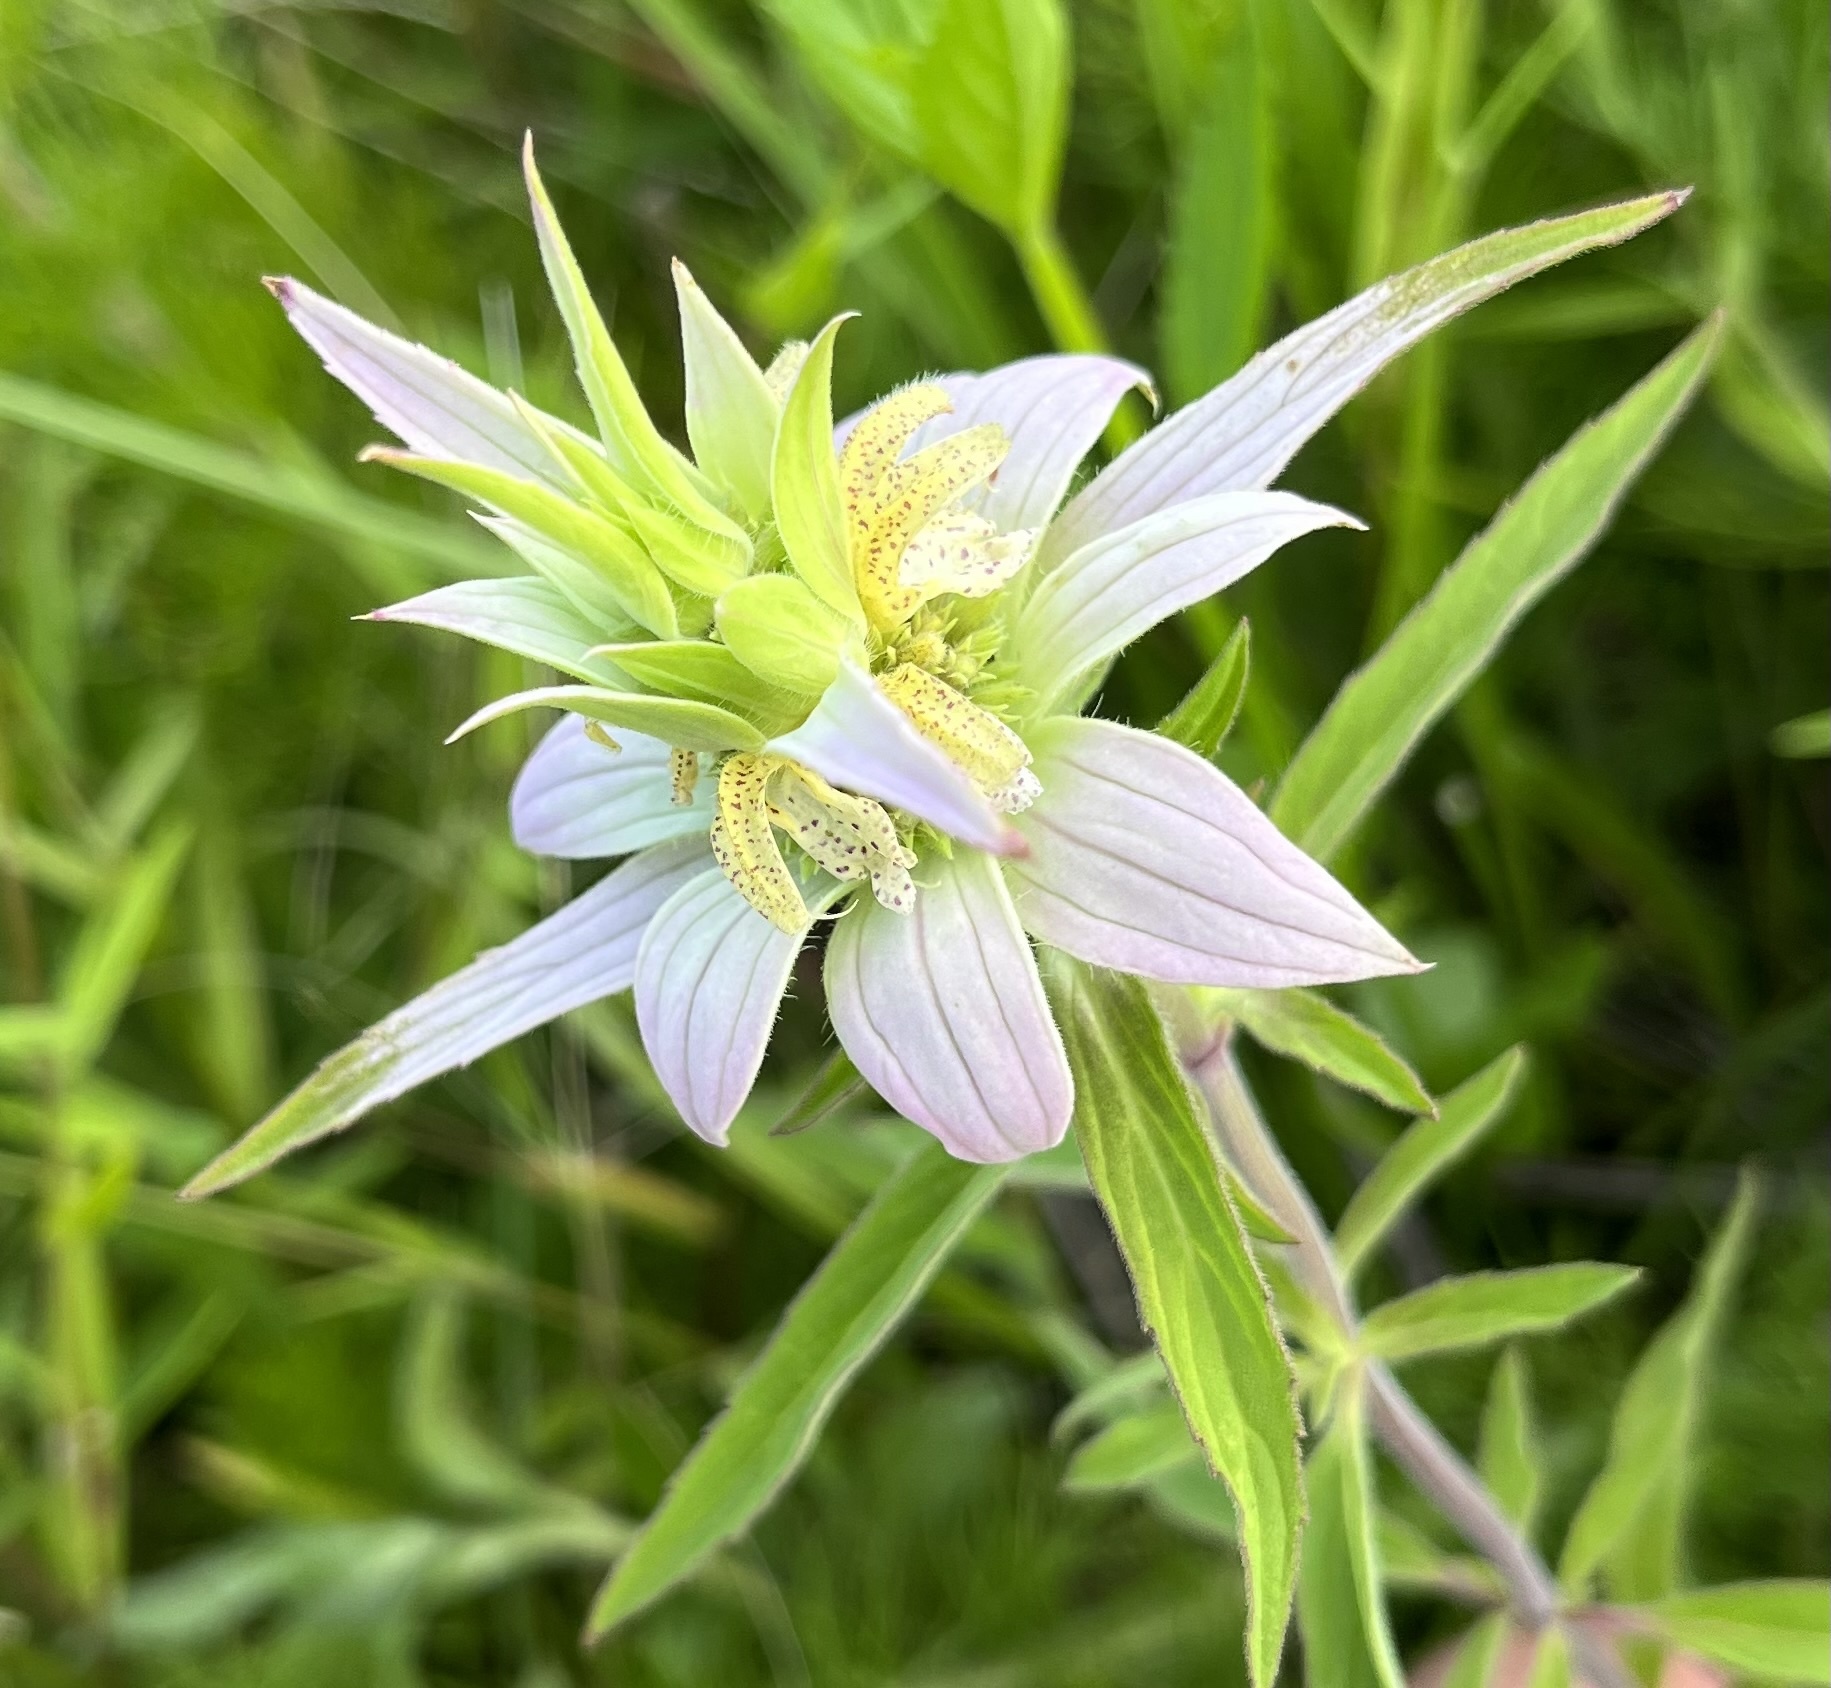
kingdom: Plantae
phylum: Tracheophyta
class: Magnoliopsida
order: Lamiales
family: Lamiaceae
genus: Monarda
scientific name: Monarda punctata
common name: Dotted monarda
